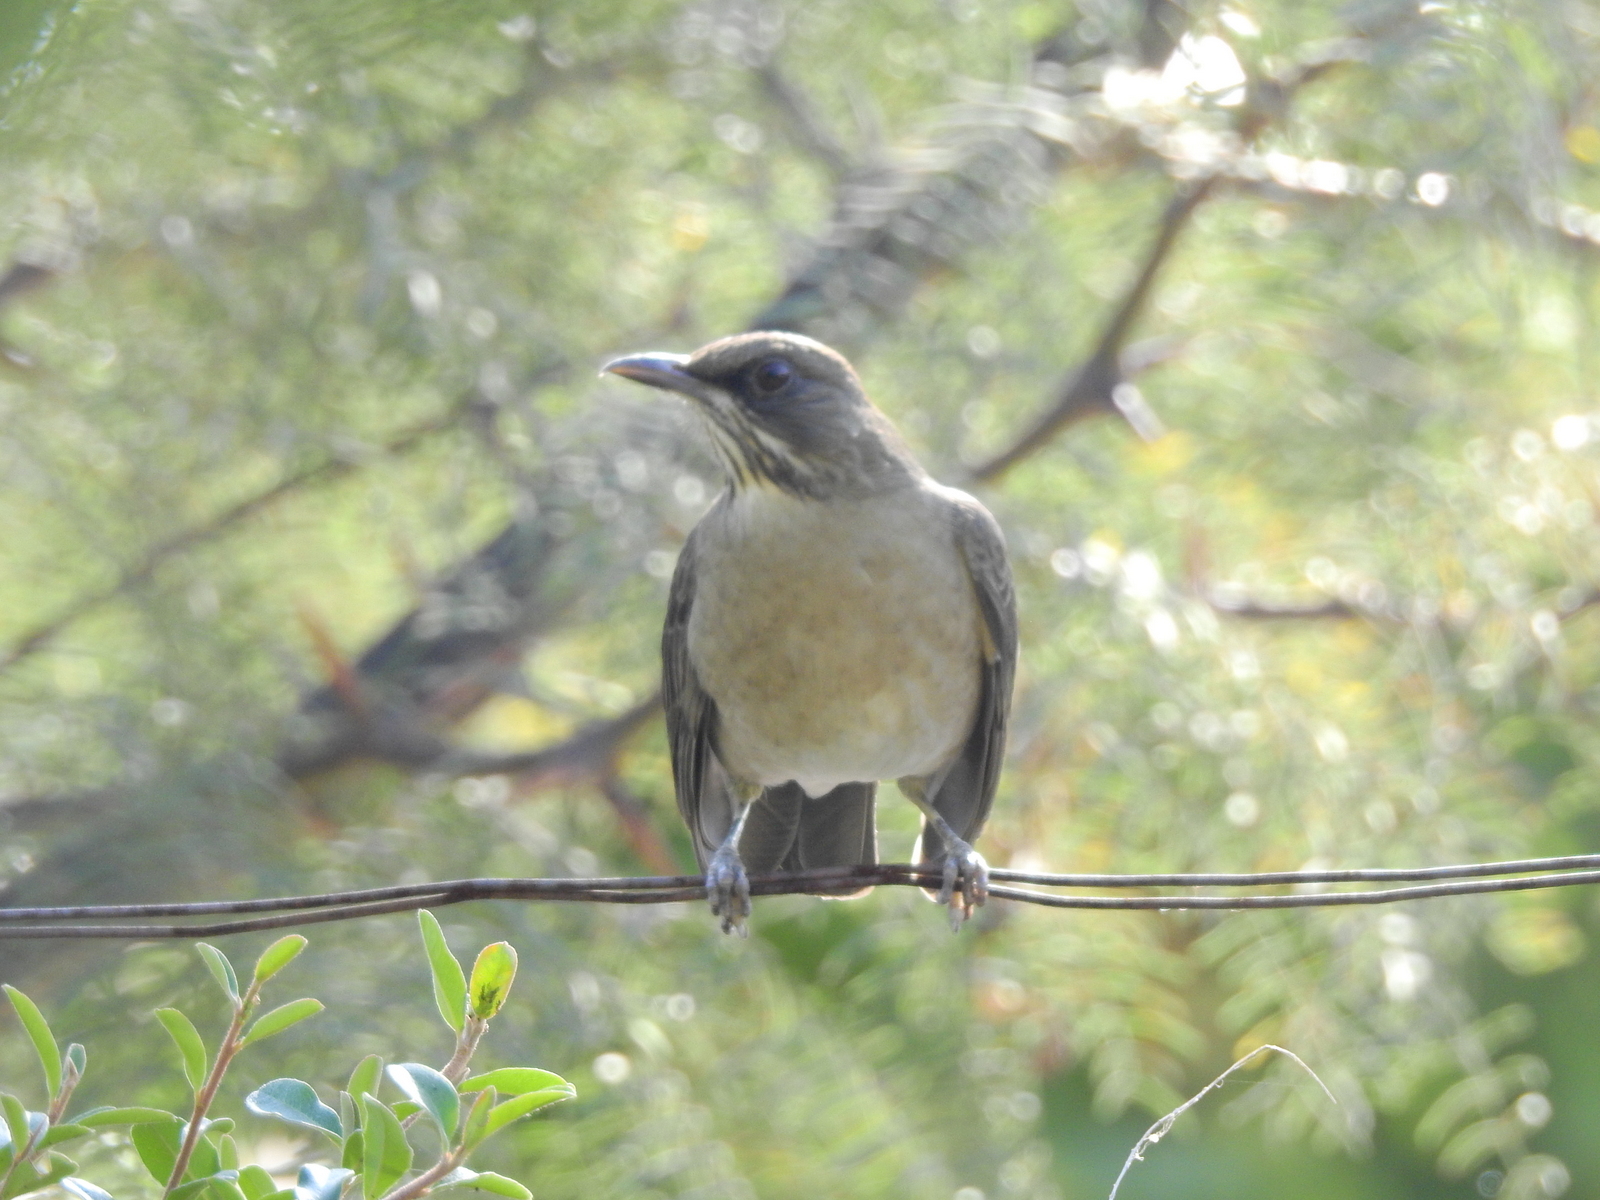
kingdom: Animalia
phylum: Chordata
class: Aves
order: Passeriformes
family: Turdidae
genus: Turdus
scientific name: Turdus amaurochalinus
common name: Creamy-bellied thrush
